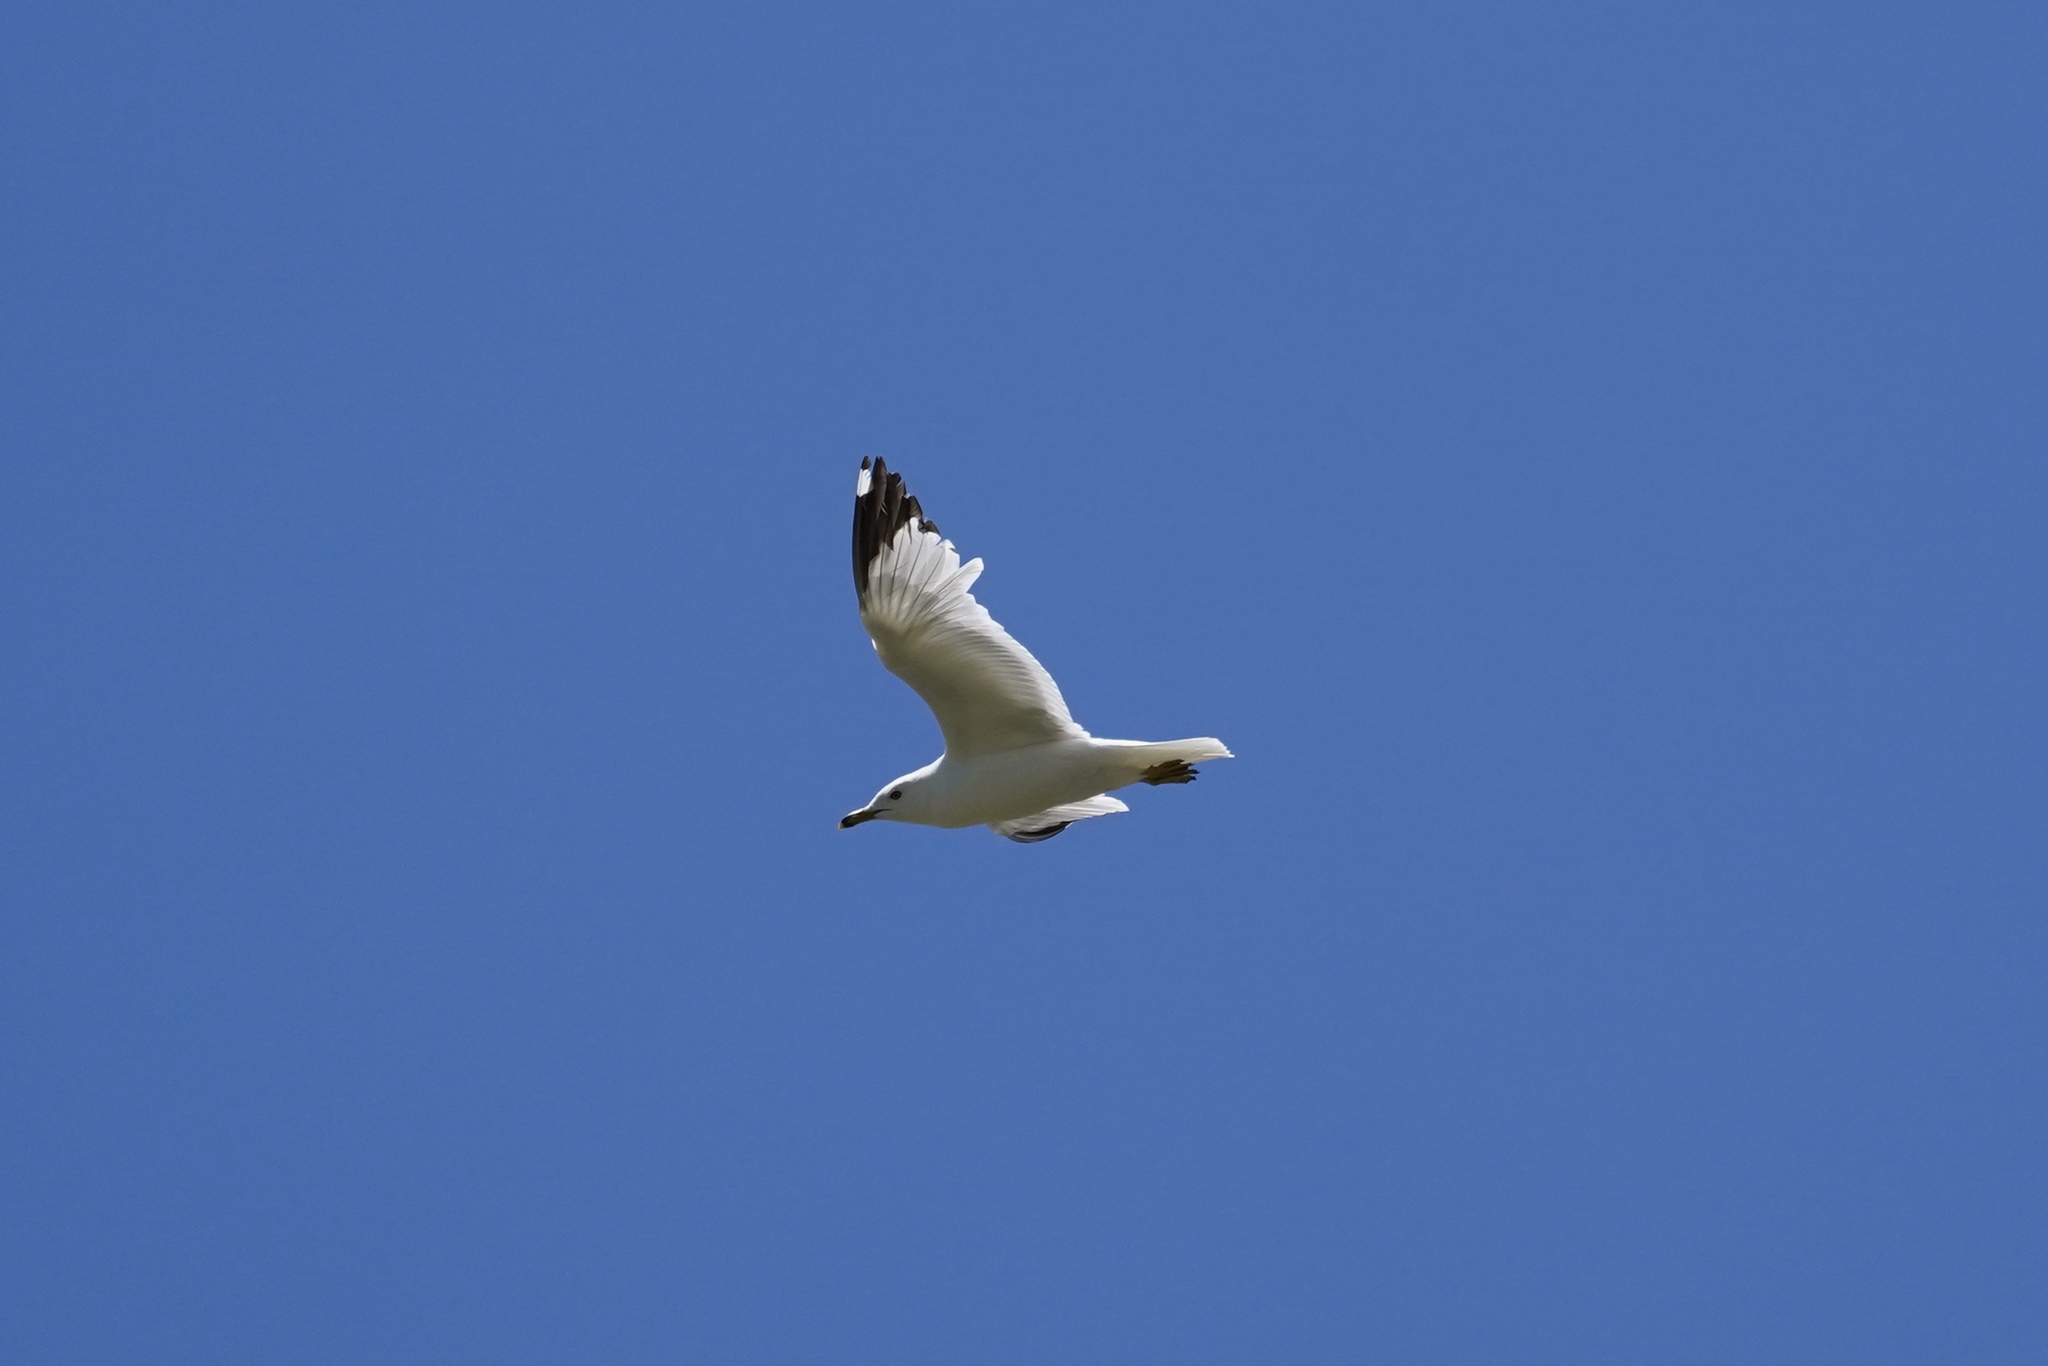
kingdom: Animalia
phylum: Chordata
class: Aves
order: Charadriiformes
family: Laridae
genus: Larus
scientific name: Larus delawarensis
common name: Ring-billed gull
